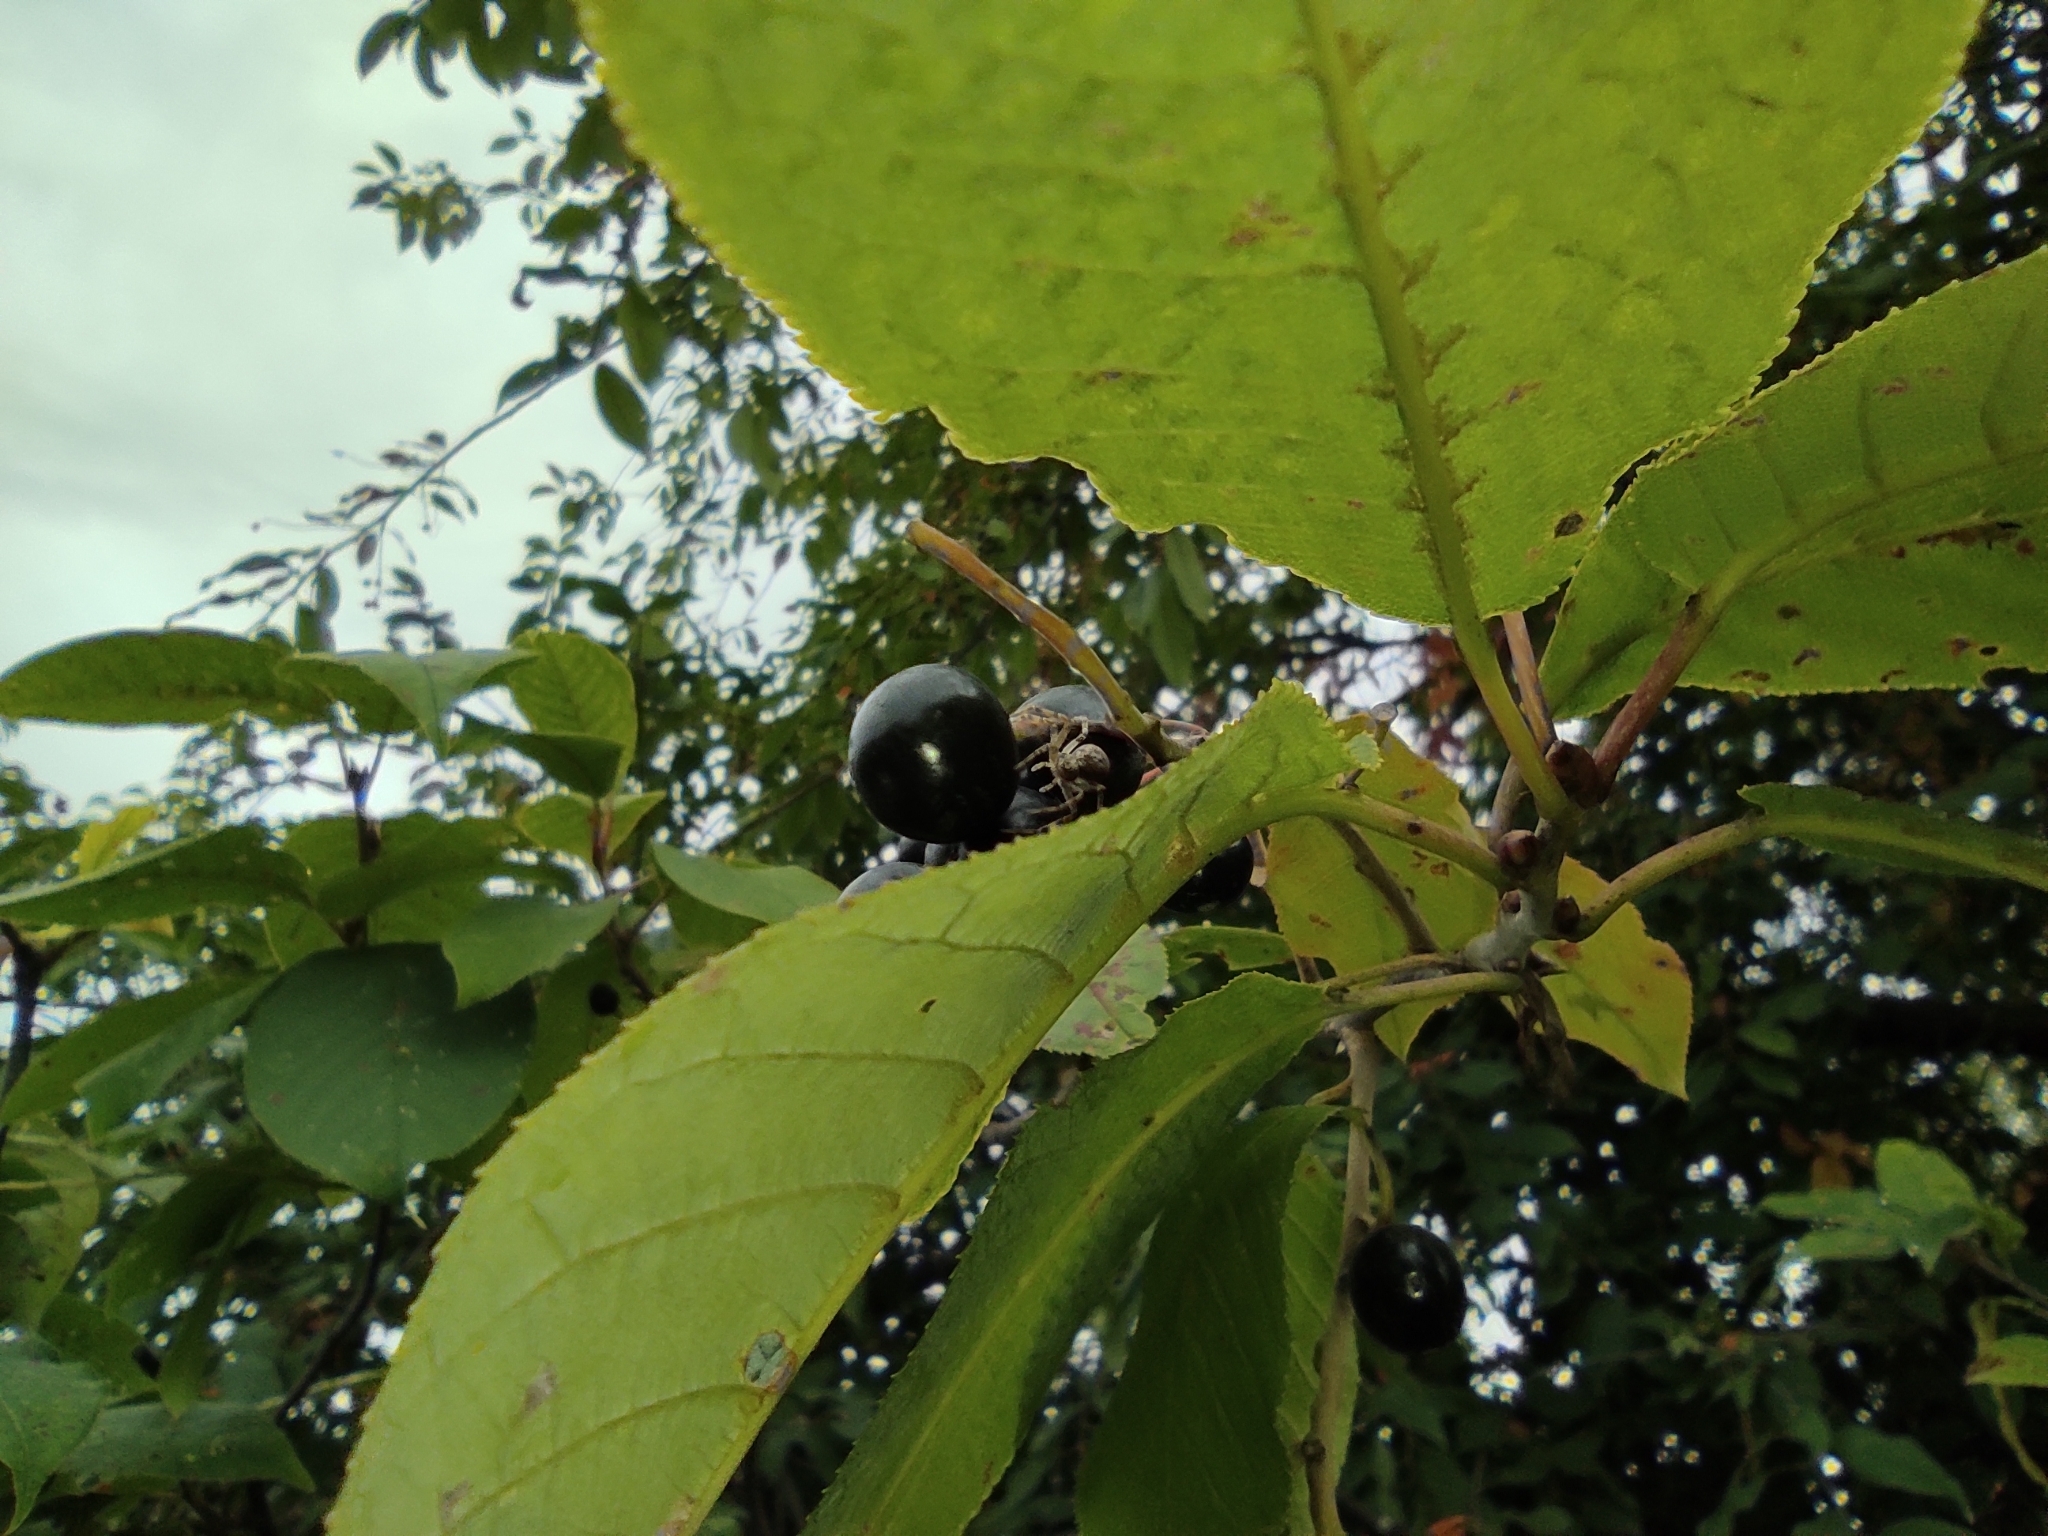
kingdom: Plantae
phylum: Tracheophyta
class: Magnoliopsida
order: Rosales
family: Rosaceae
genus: Prunus
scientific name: Prunus padus
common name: Bird cherry
